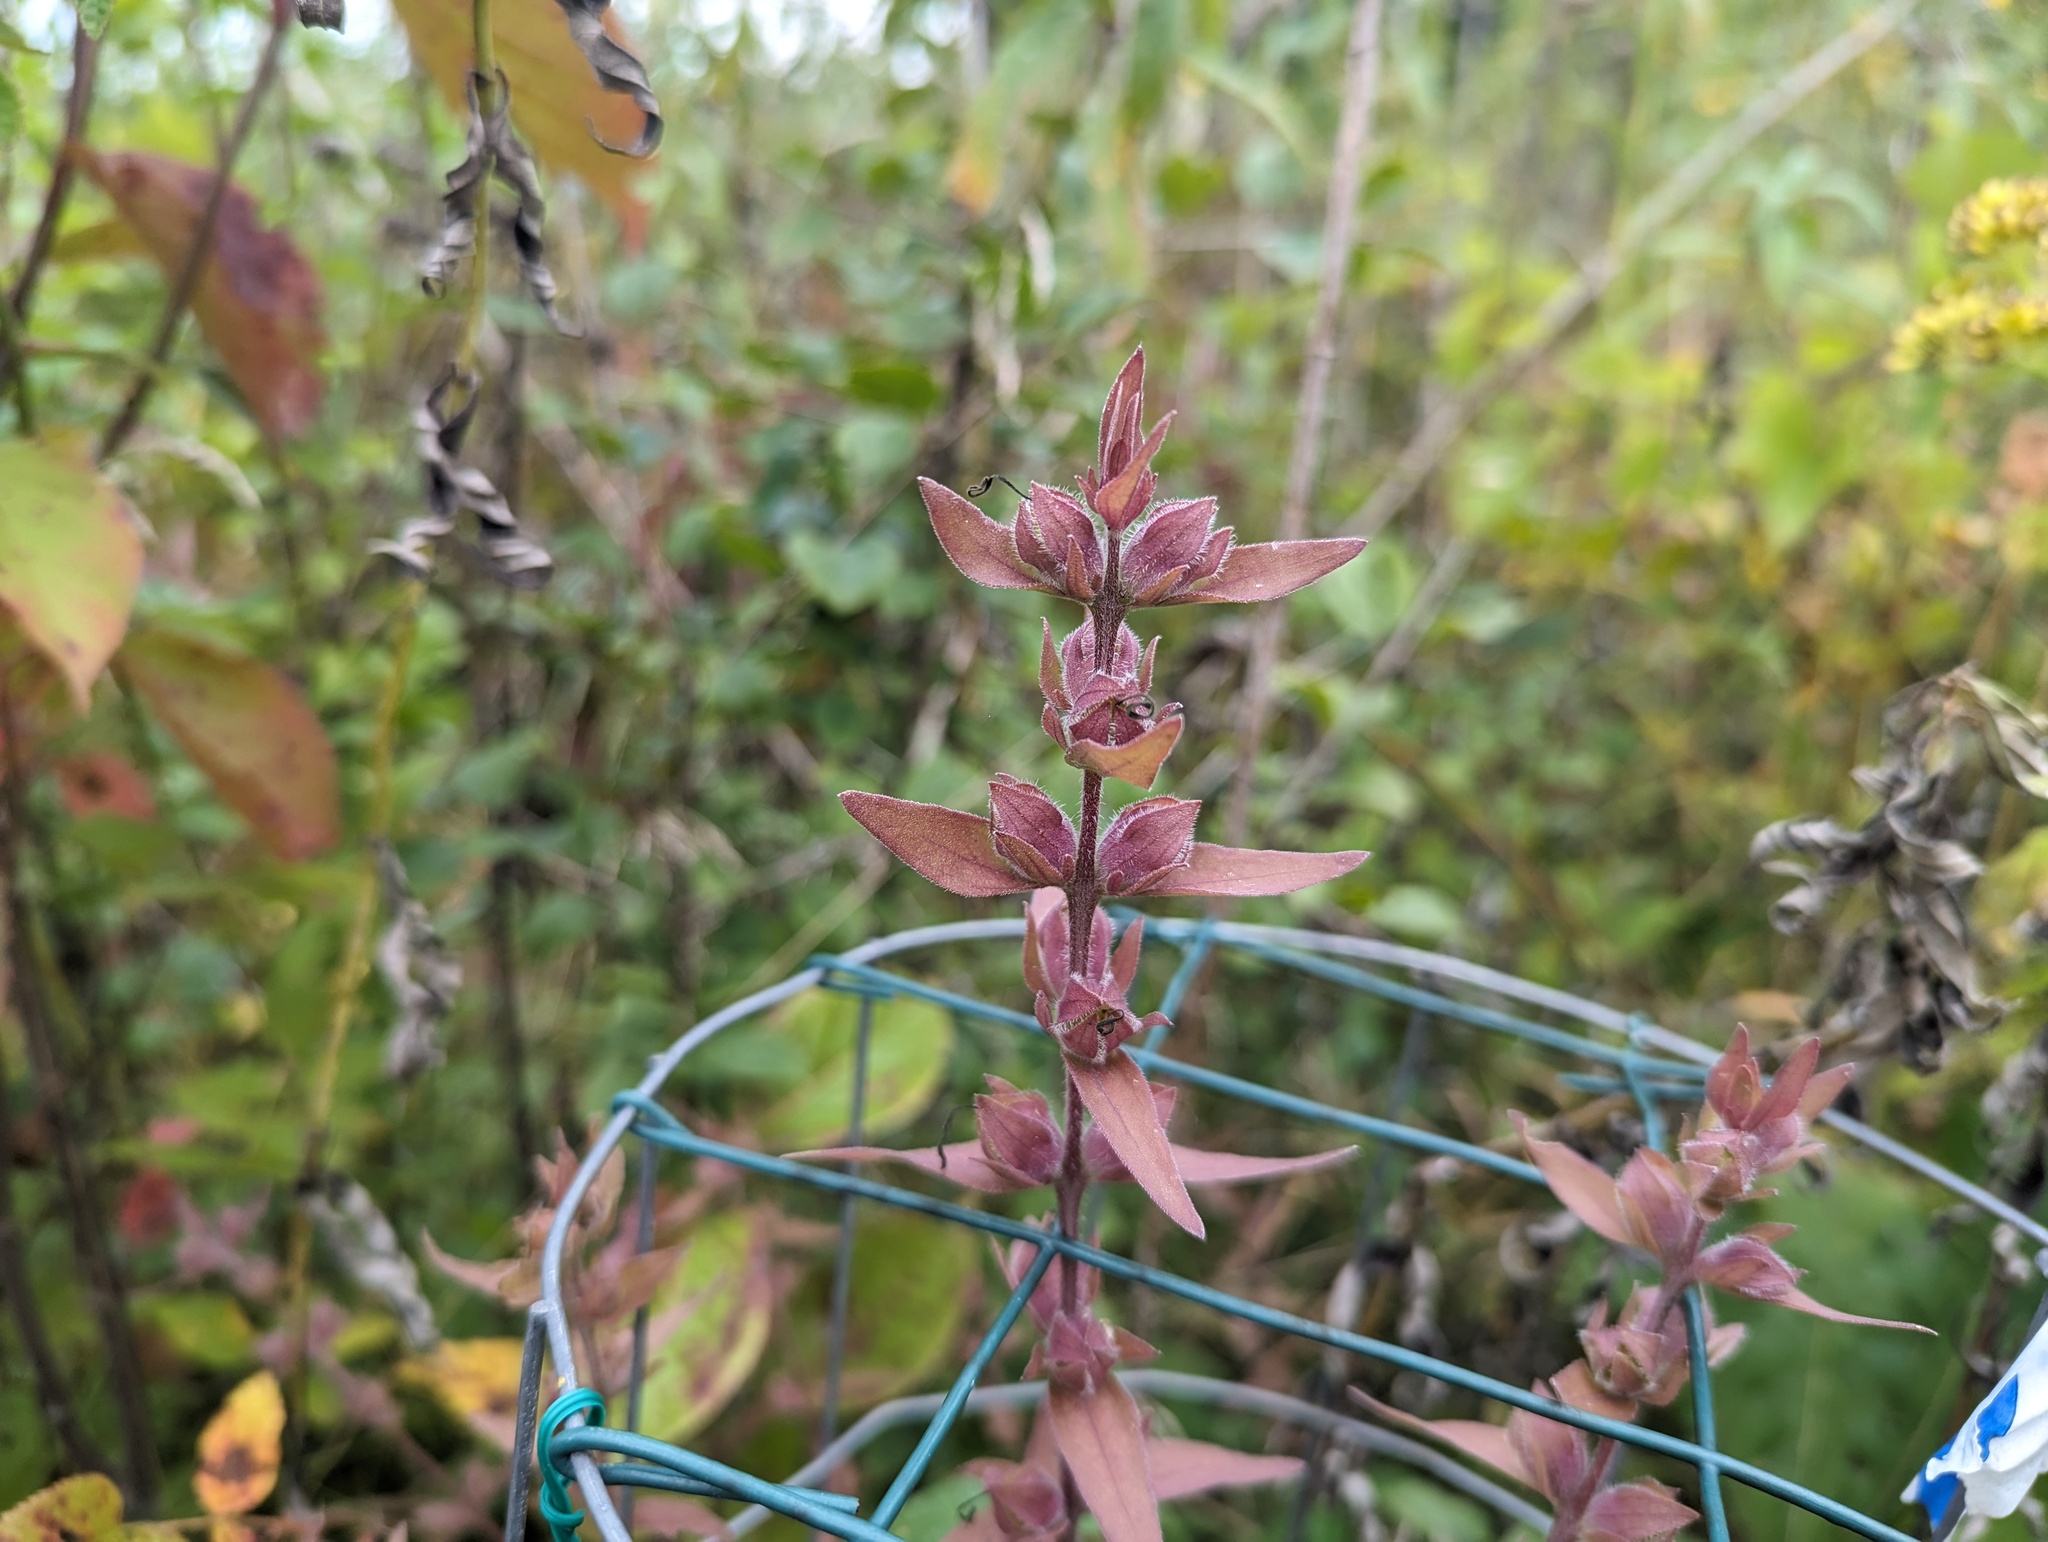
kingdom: Plantae
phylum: Tracheophyta
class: Magnoliopsida
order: Lamiales
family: Orobanchaceae
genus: Agalinis
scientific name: Agalinis auriculata
